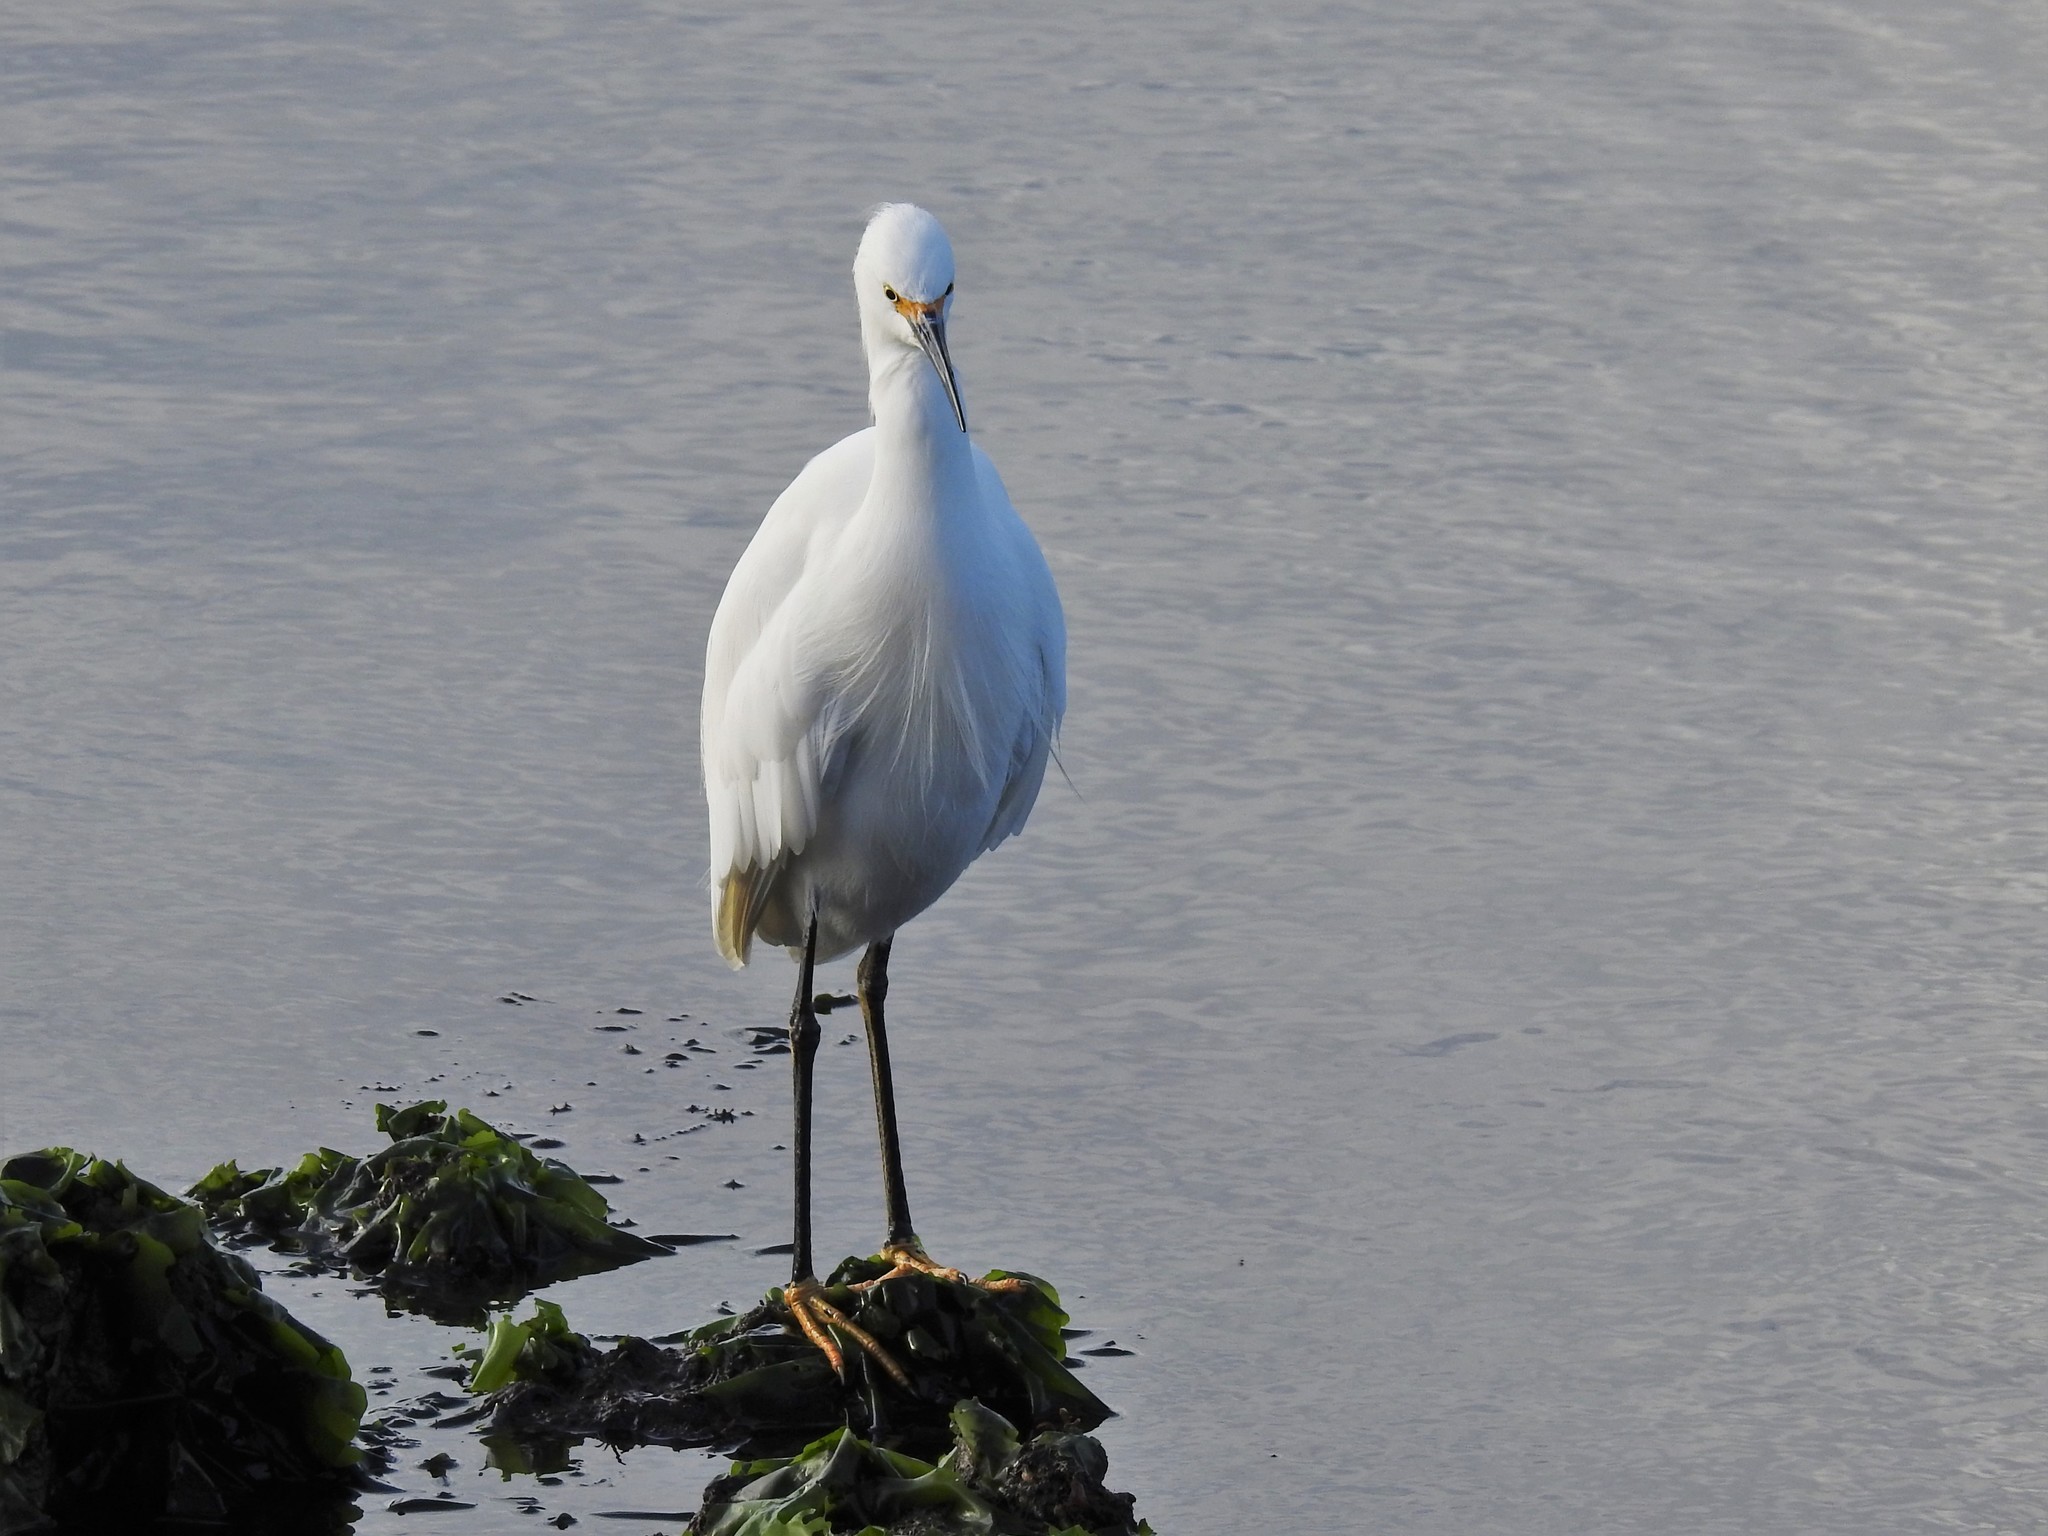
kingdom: Animalia
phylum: Chordata
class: Aves
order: Pelecaniformes
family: Ardeidae
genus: Egretta
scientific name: Egretta thula
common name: Snowy egret
